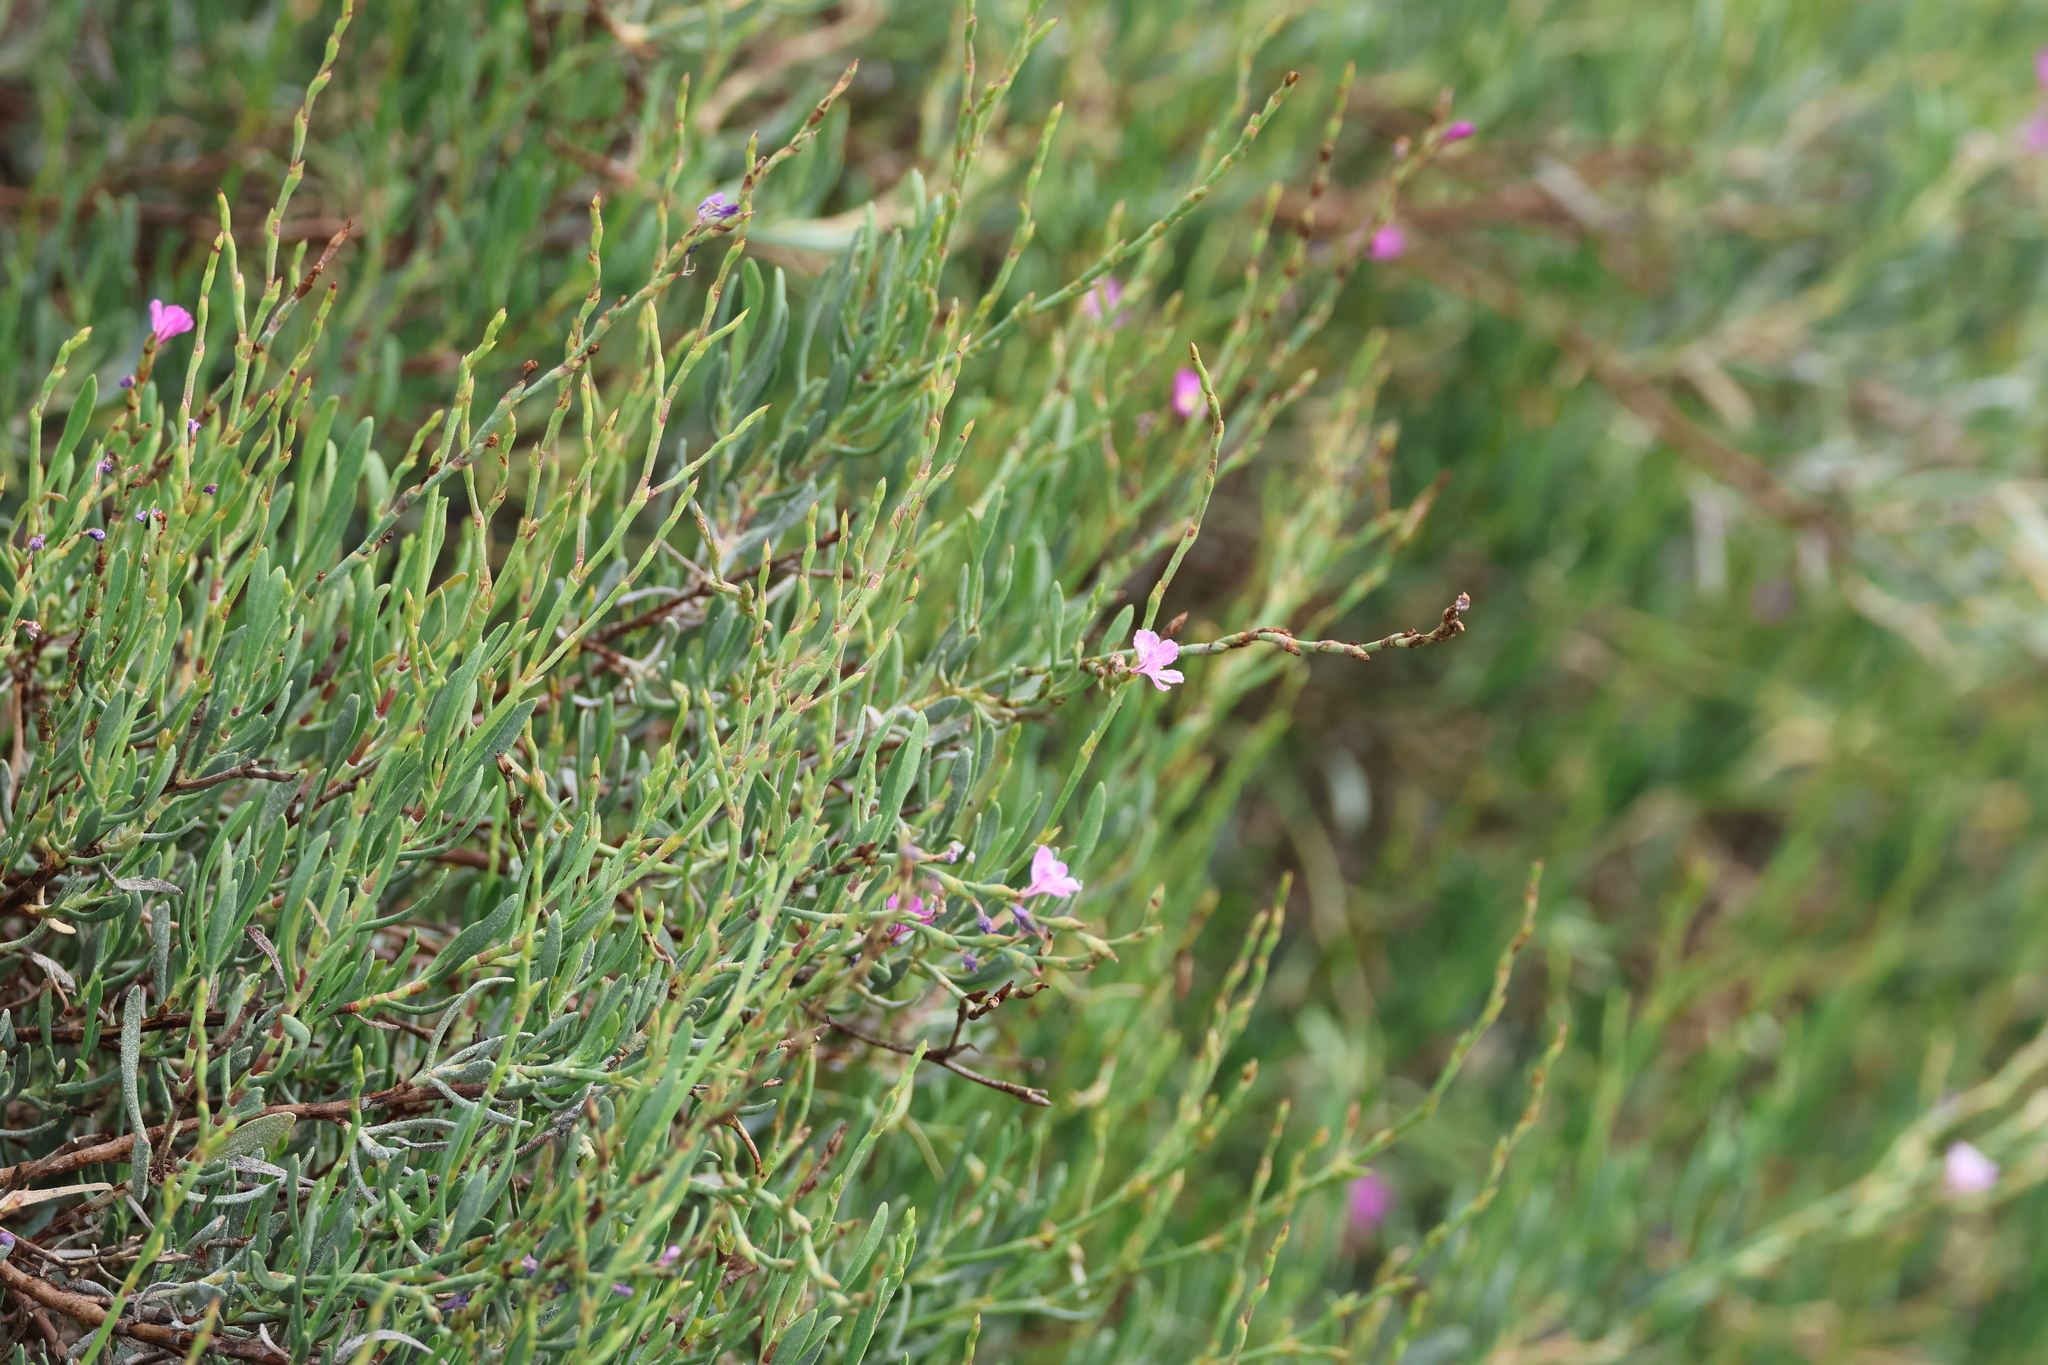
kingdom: Plantae
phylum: Tracheophyta
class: Magnoliopsida
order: Caryophyllales
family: Plumbaginaceae
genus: Limoniastrum
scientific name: Limoniastrum monopetalum
